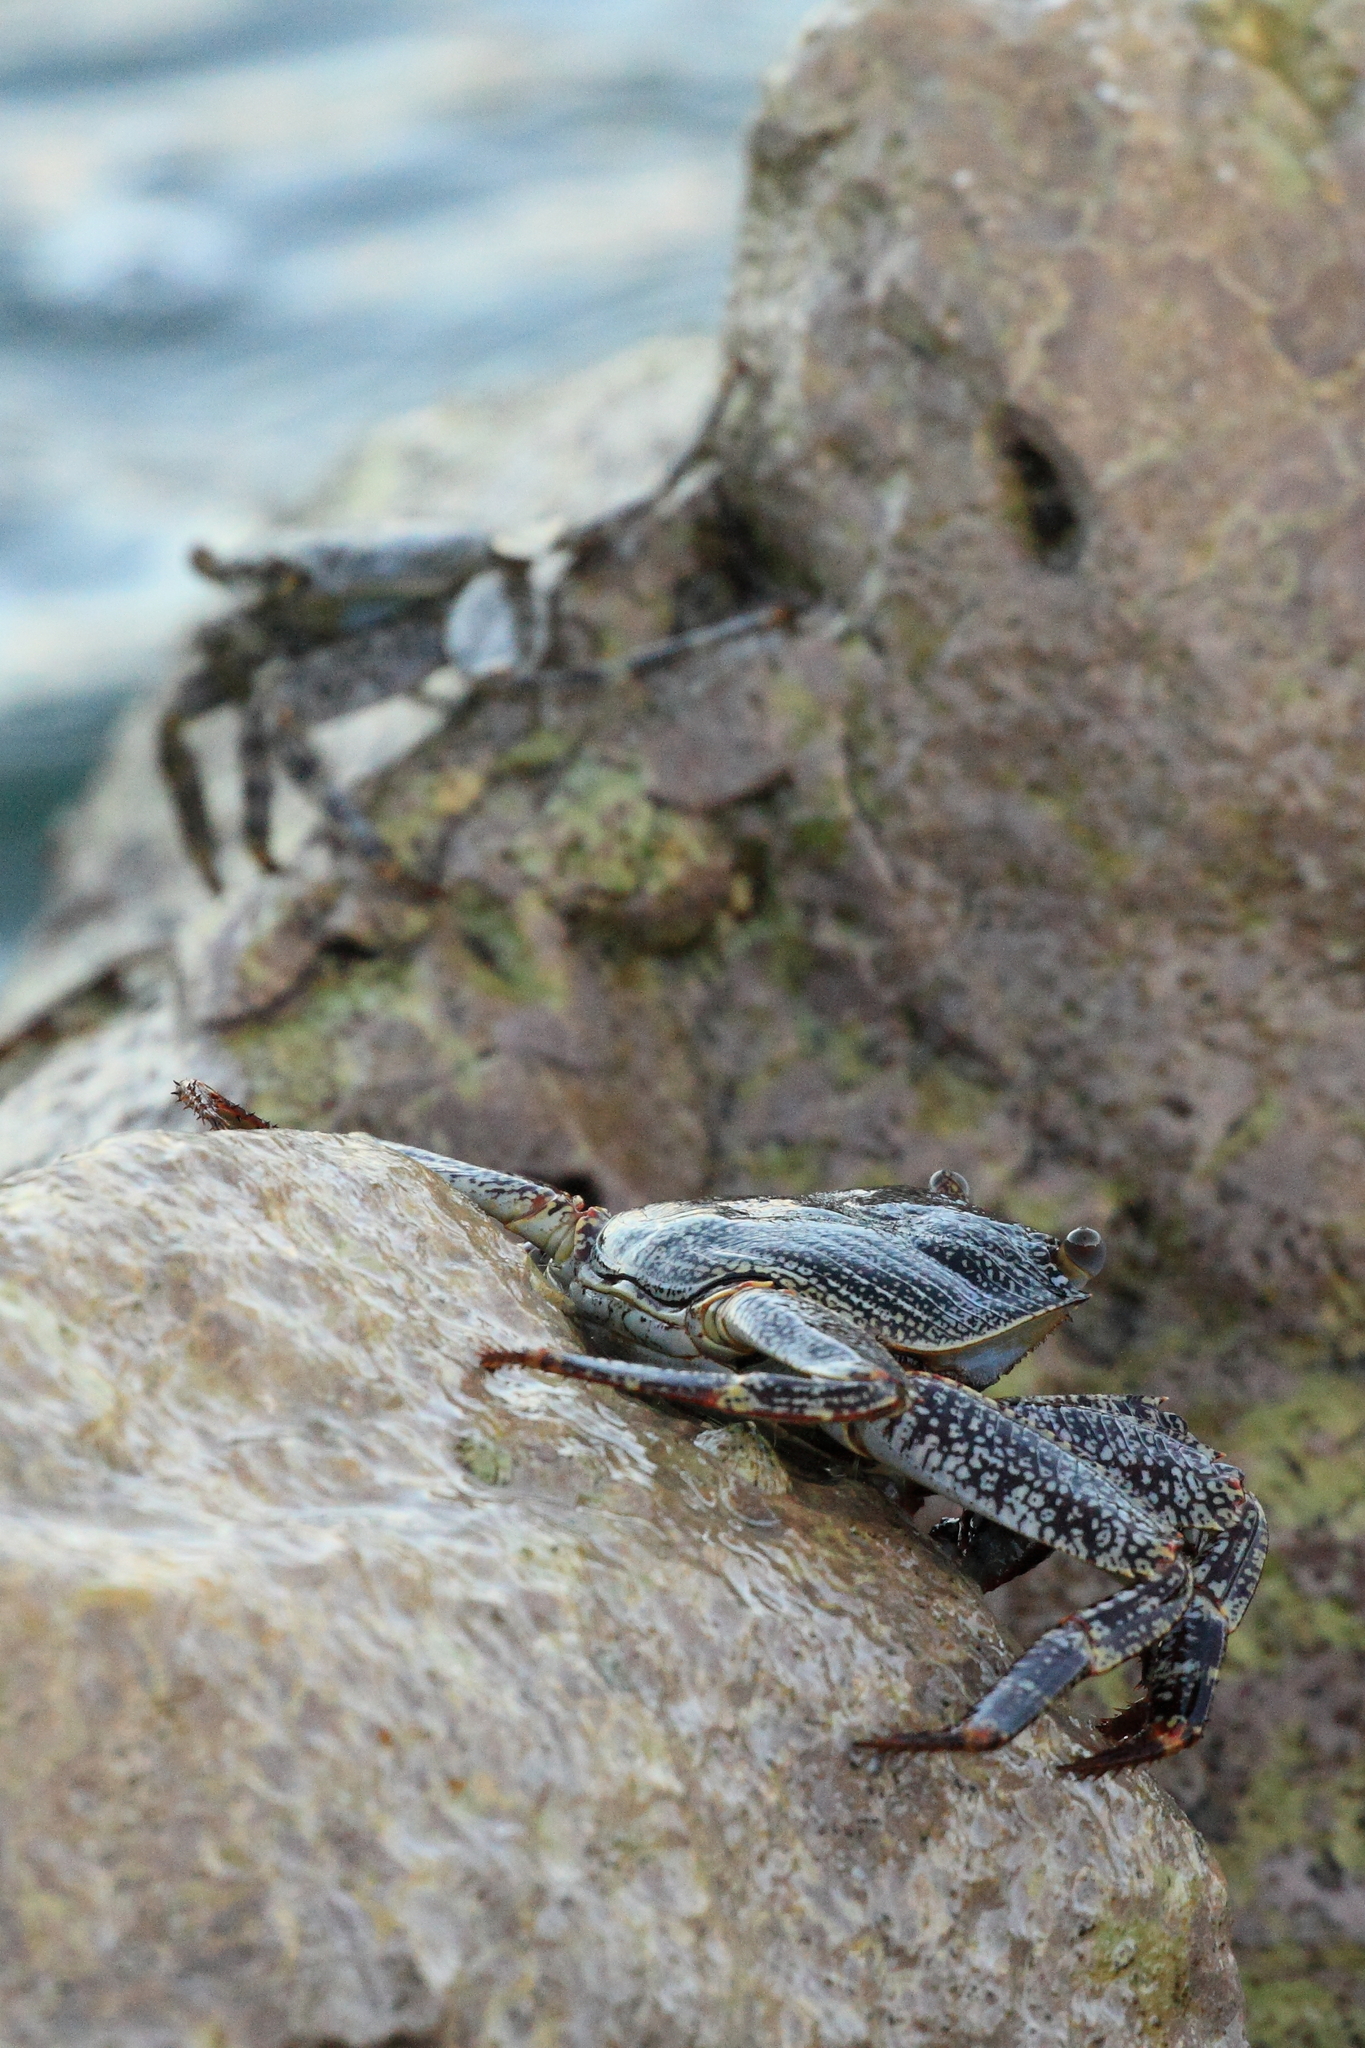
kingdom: Animalia
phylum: Arthropoda
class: Malacostraca
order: Decapoda
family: Grapsidae
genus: Grapsus
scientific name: Grapsus grapsus
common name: Sally lightfoot
